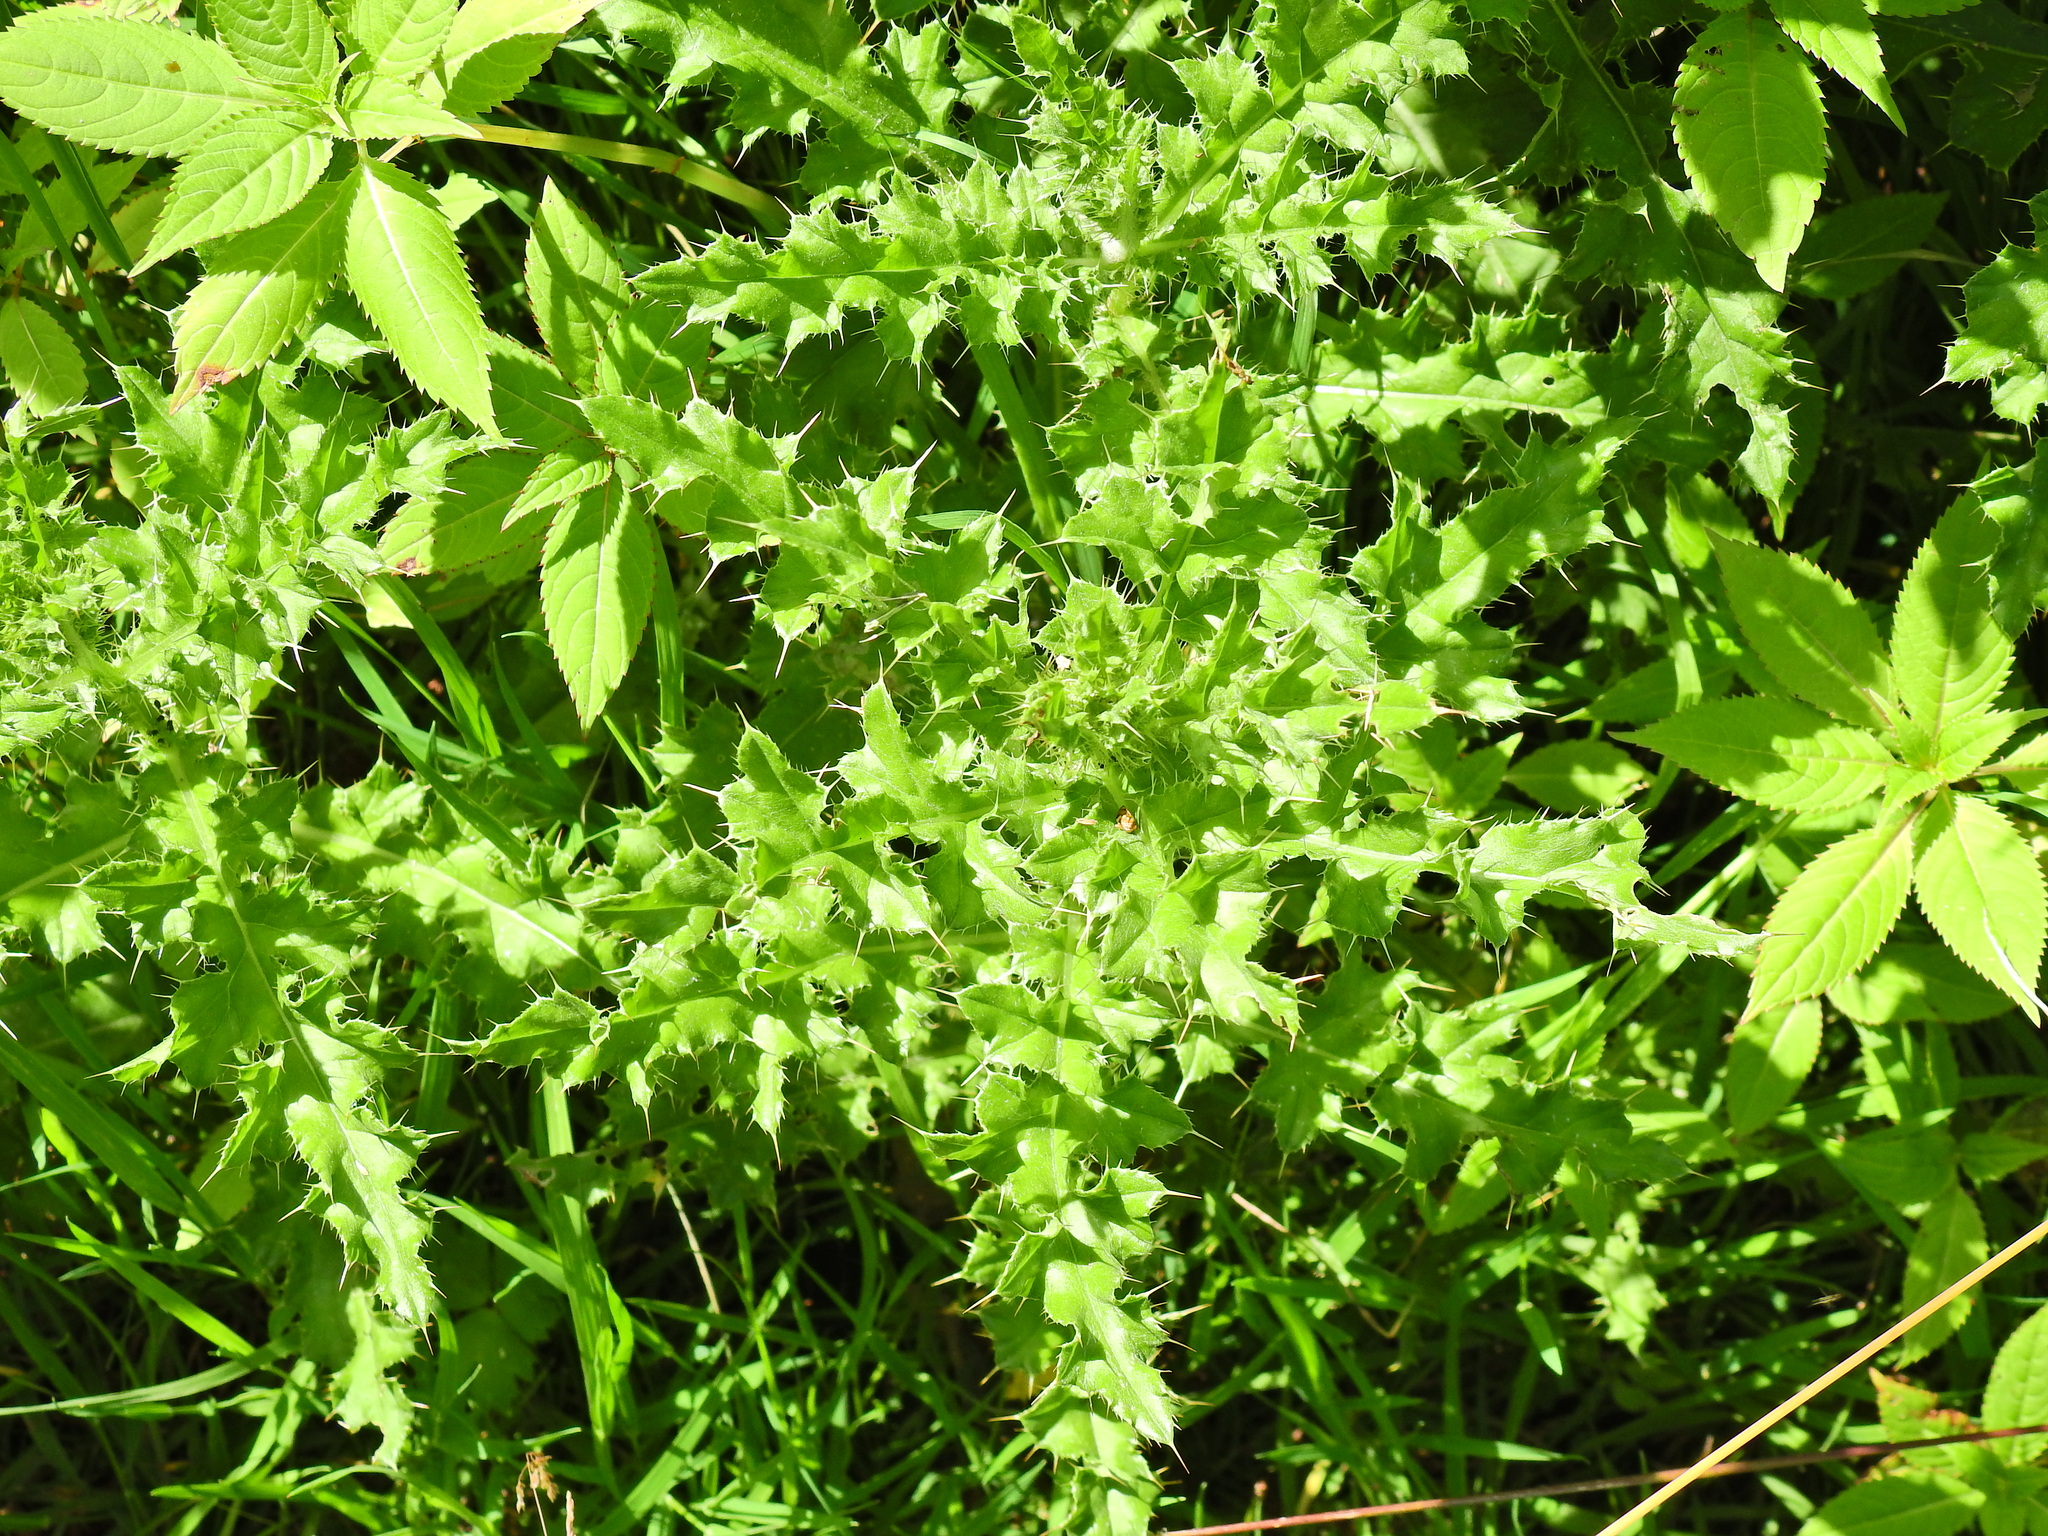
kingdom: Plantae
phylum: Tracheophyta
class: Magnoliopsida
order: Asterales
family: Asteraceae
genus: Cirsium
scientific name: Cirsium arvense
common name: Creeping thistle
